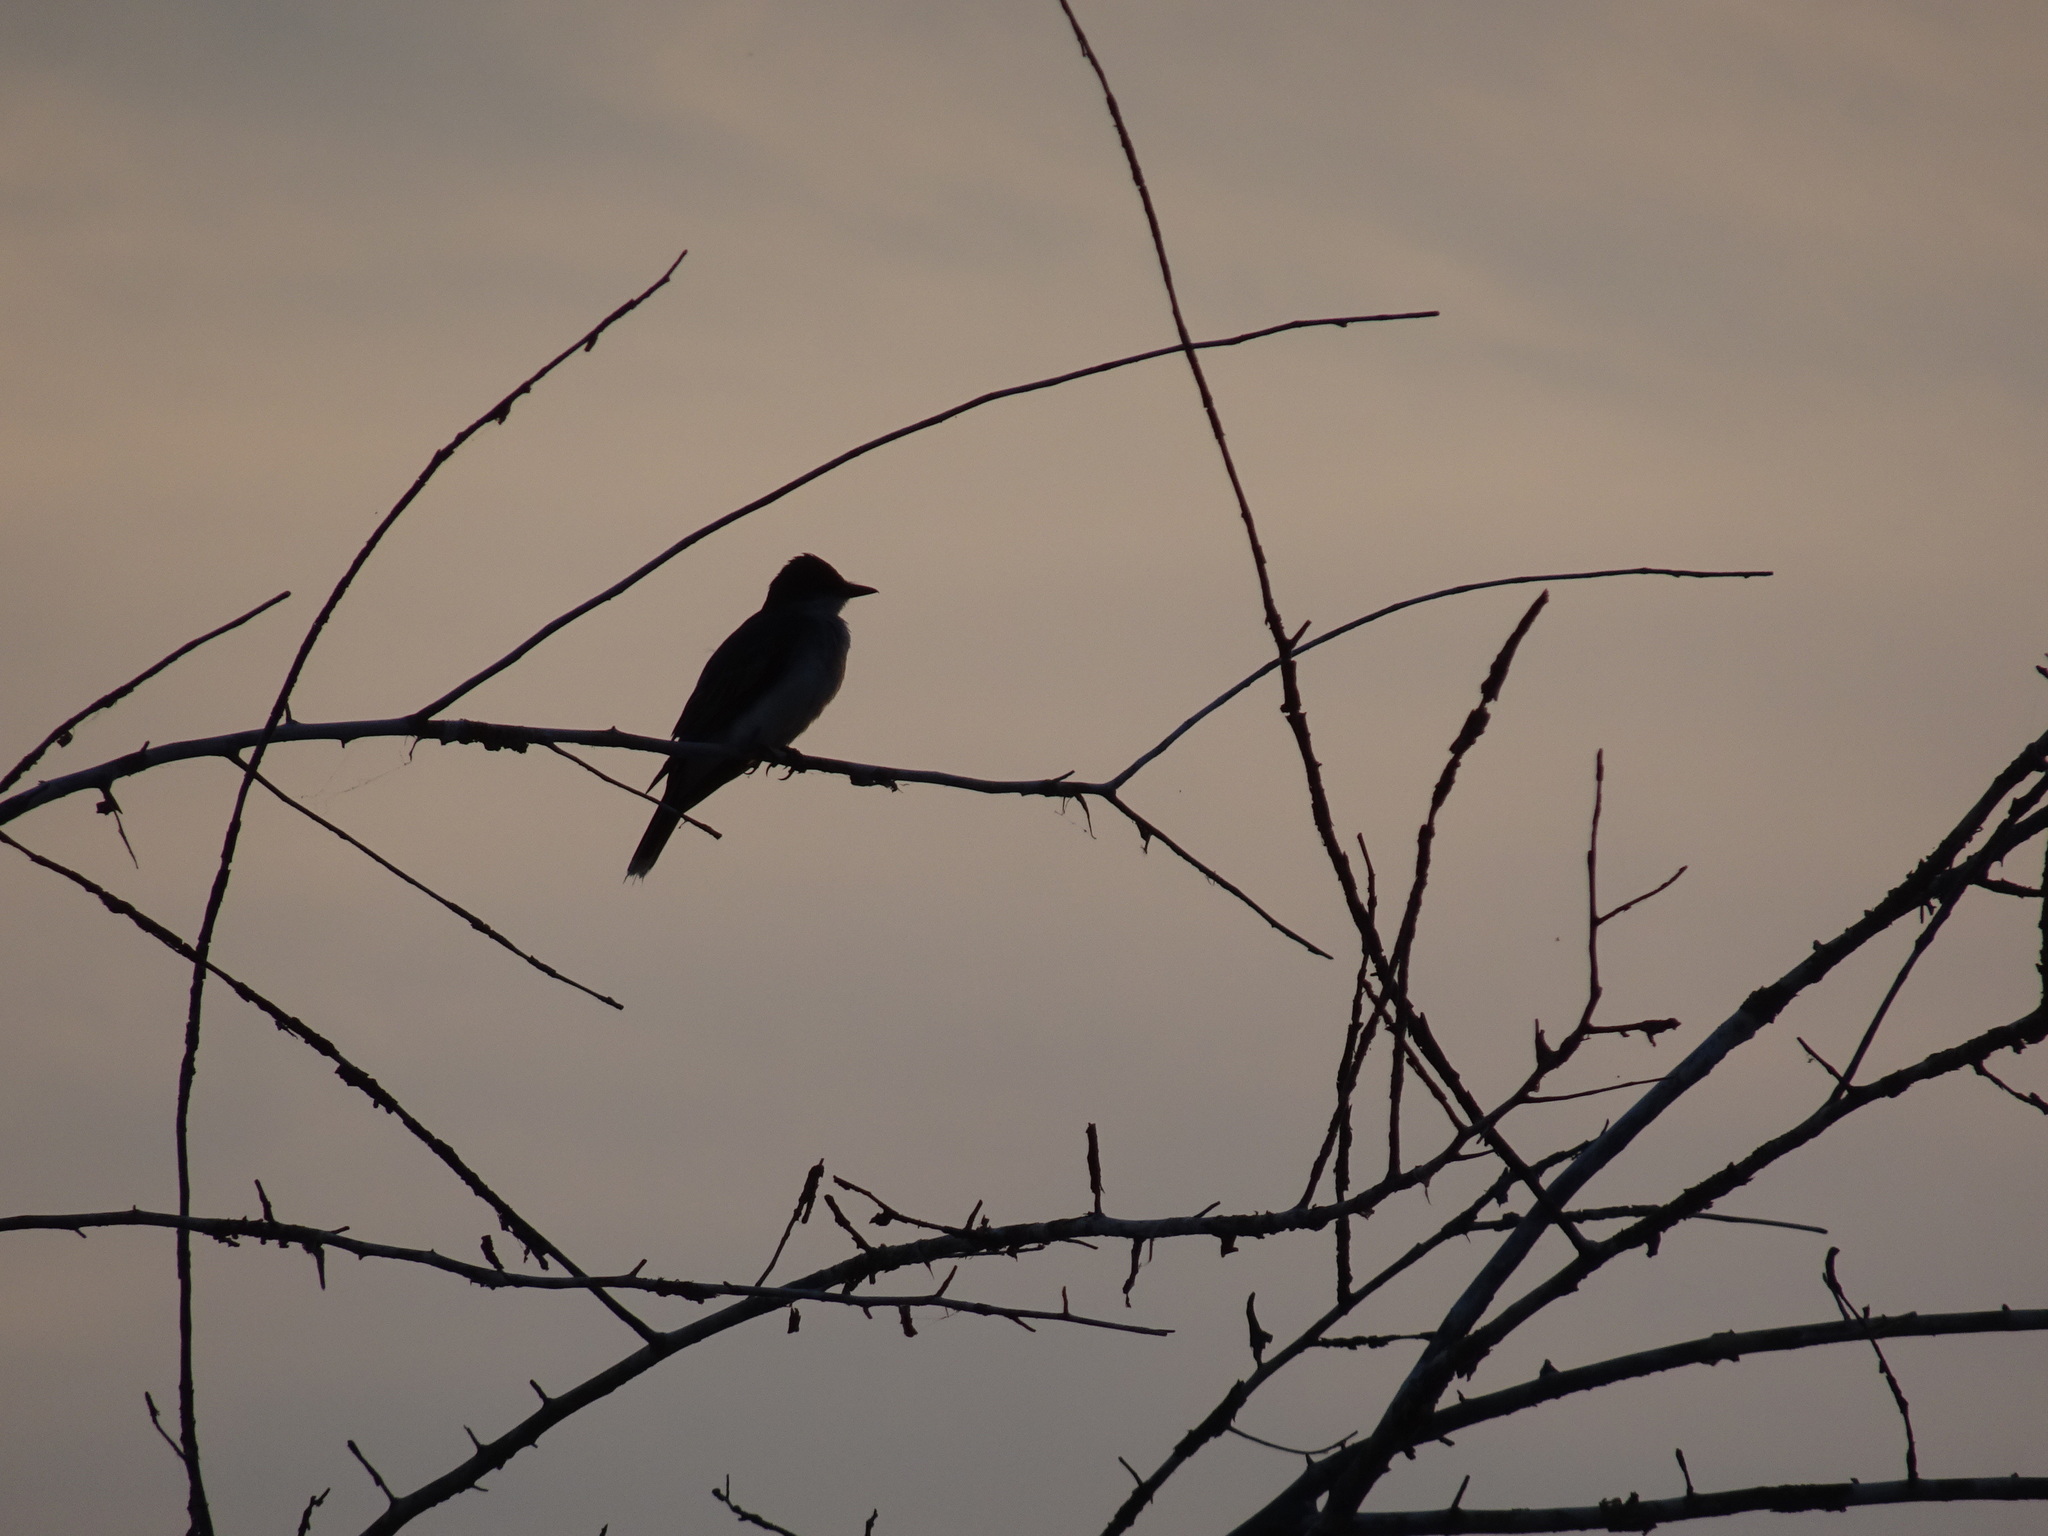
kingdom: Animalia
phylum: Chordata
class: Aves
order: Passeriformes
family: Tyrannidae
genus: Tyrannus
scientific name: Tyrannus tyrannus
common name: Eastern kingbird
